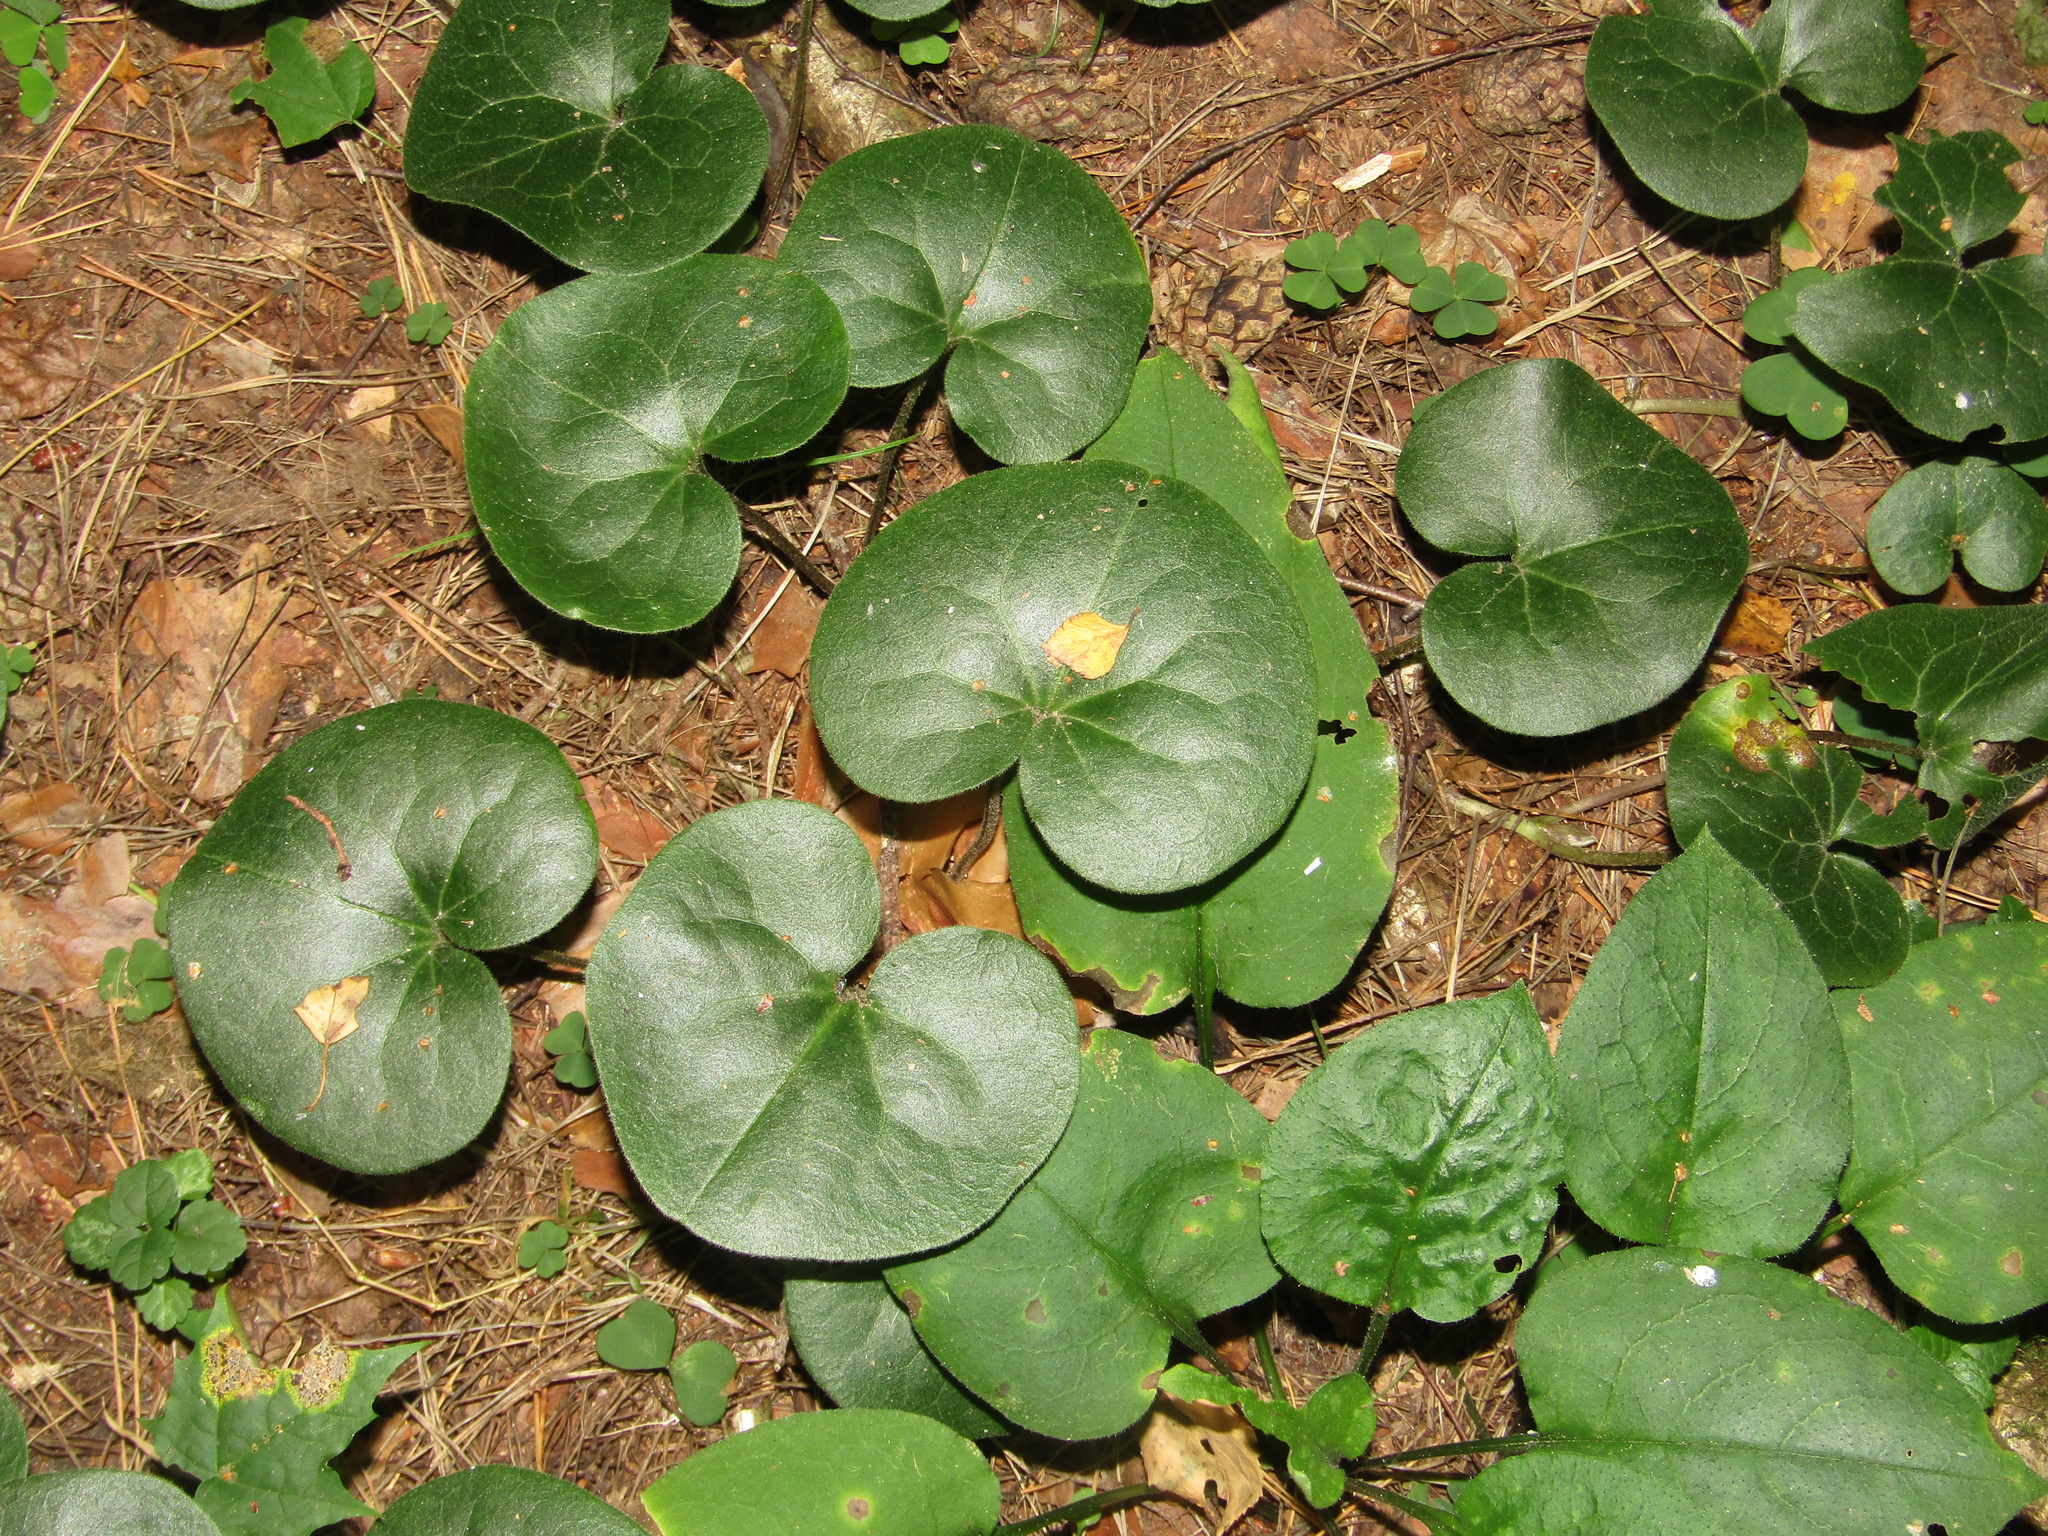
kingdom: Plantae
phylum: Tracheophyta
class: Magnoliopsida
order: Piperales
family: Aristolochiaceae
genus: Asarum
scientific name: Asarum europaeum
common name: Asarabacca
